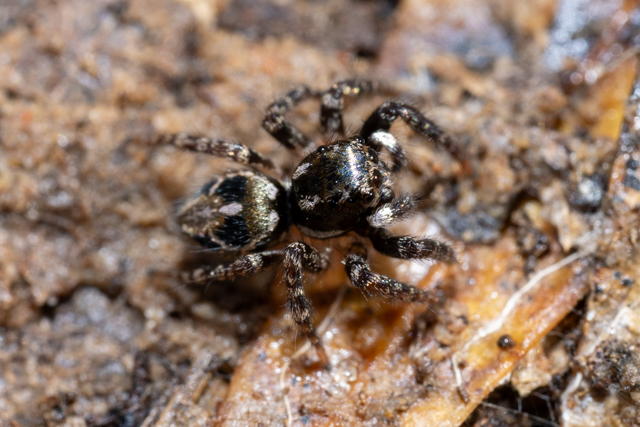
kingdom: Animalia
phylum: Arthropoda
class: Arachnida
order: Araneae
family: Salticidae
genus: Anasaitis
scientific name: Anasaitis canosa
